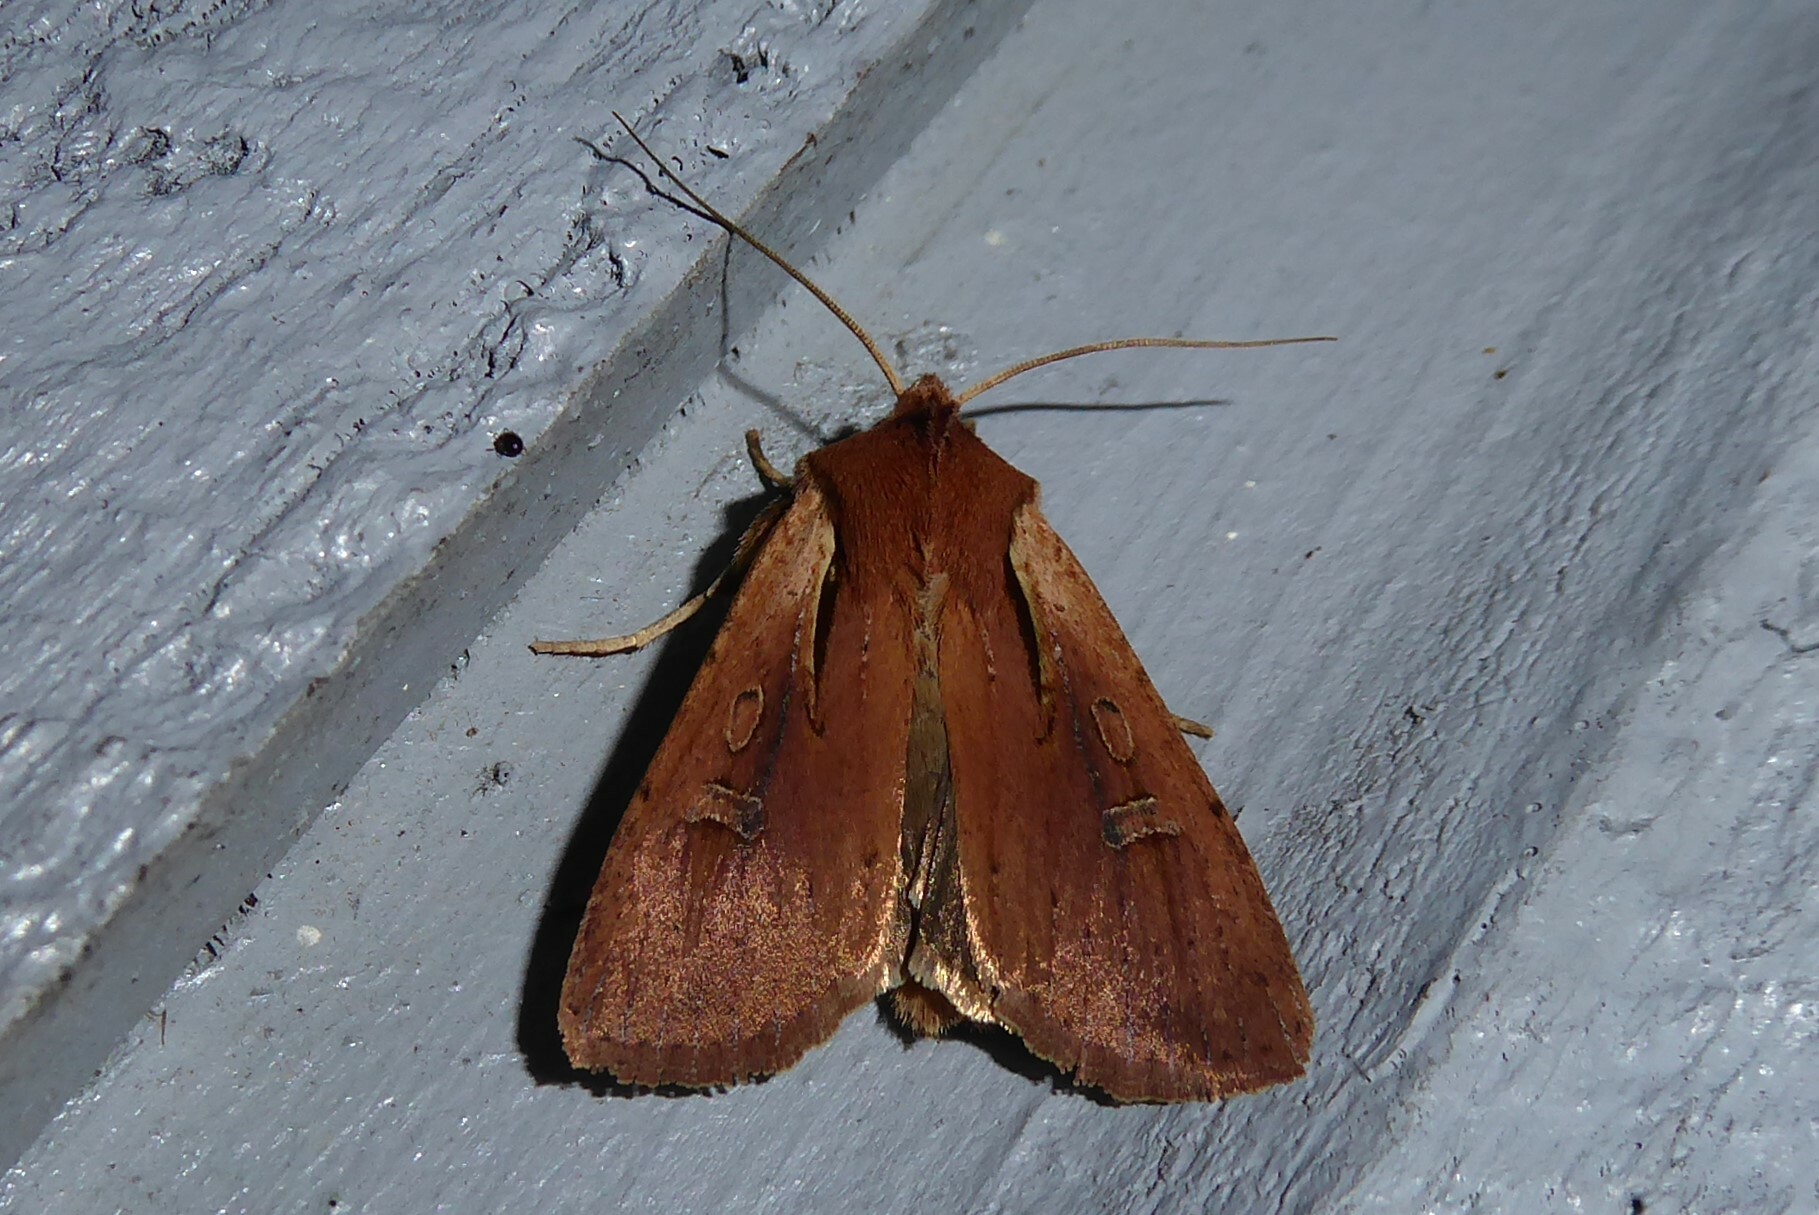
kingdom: Animalia
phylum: Arthropoda
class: Insecta
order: Lepidoptera
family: Noctuidae
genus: Ichneutica
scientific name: Ichneutica atristriga
